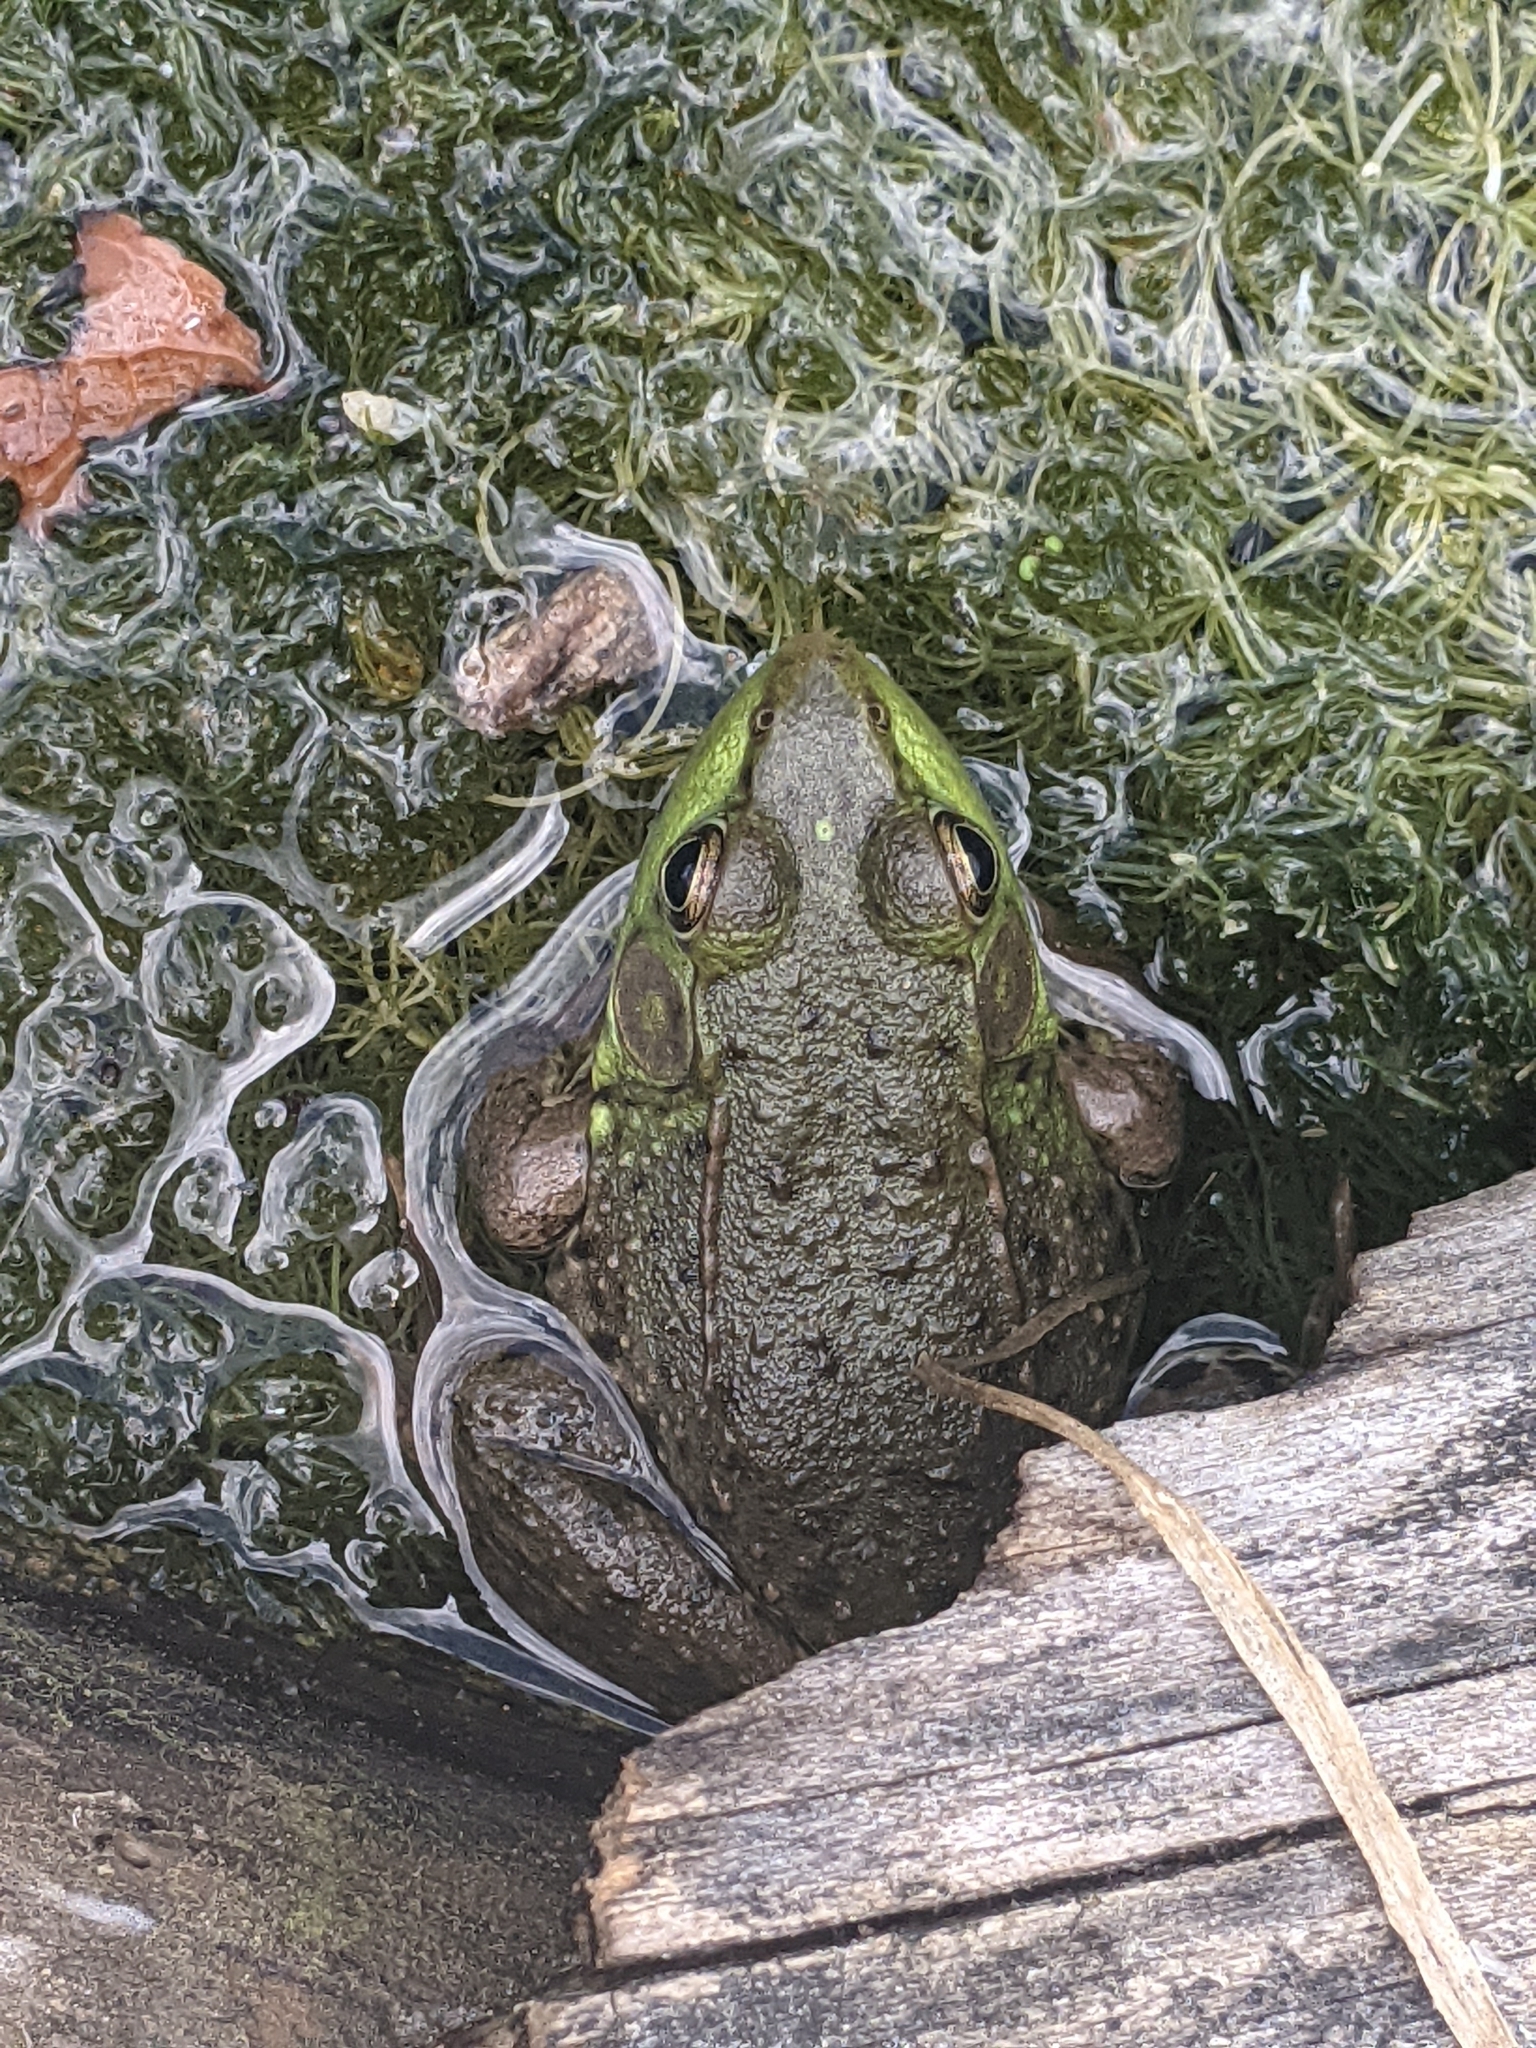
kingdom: Animalia
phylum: Chordata
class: Amphibia
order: Anura
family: Ranidae
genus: Lithobates
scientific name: Lithobates clamitans
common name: Green frog
